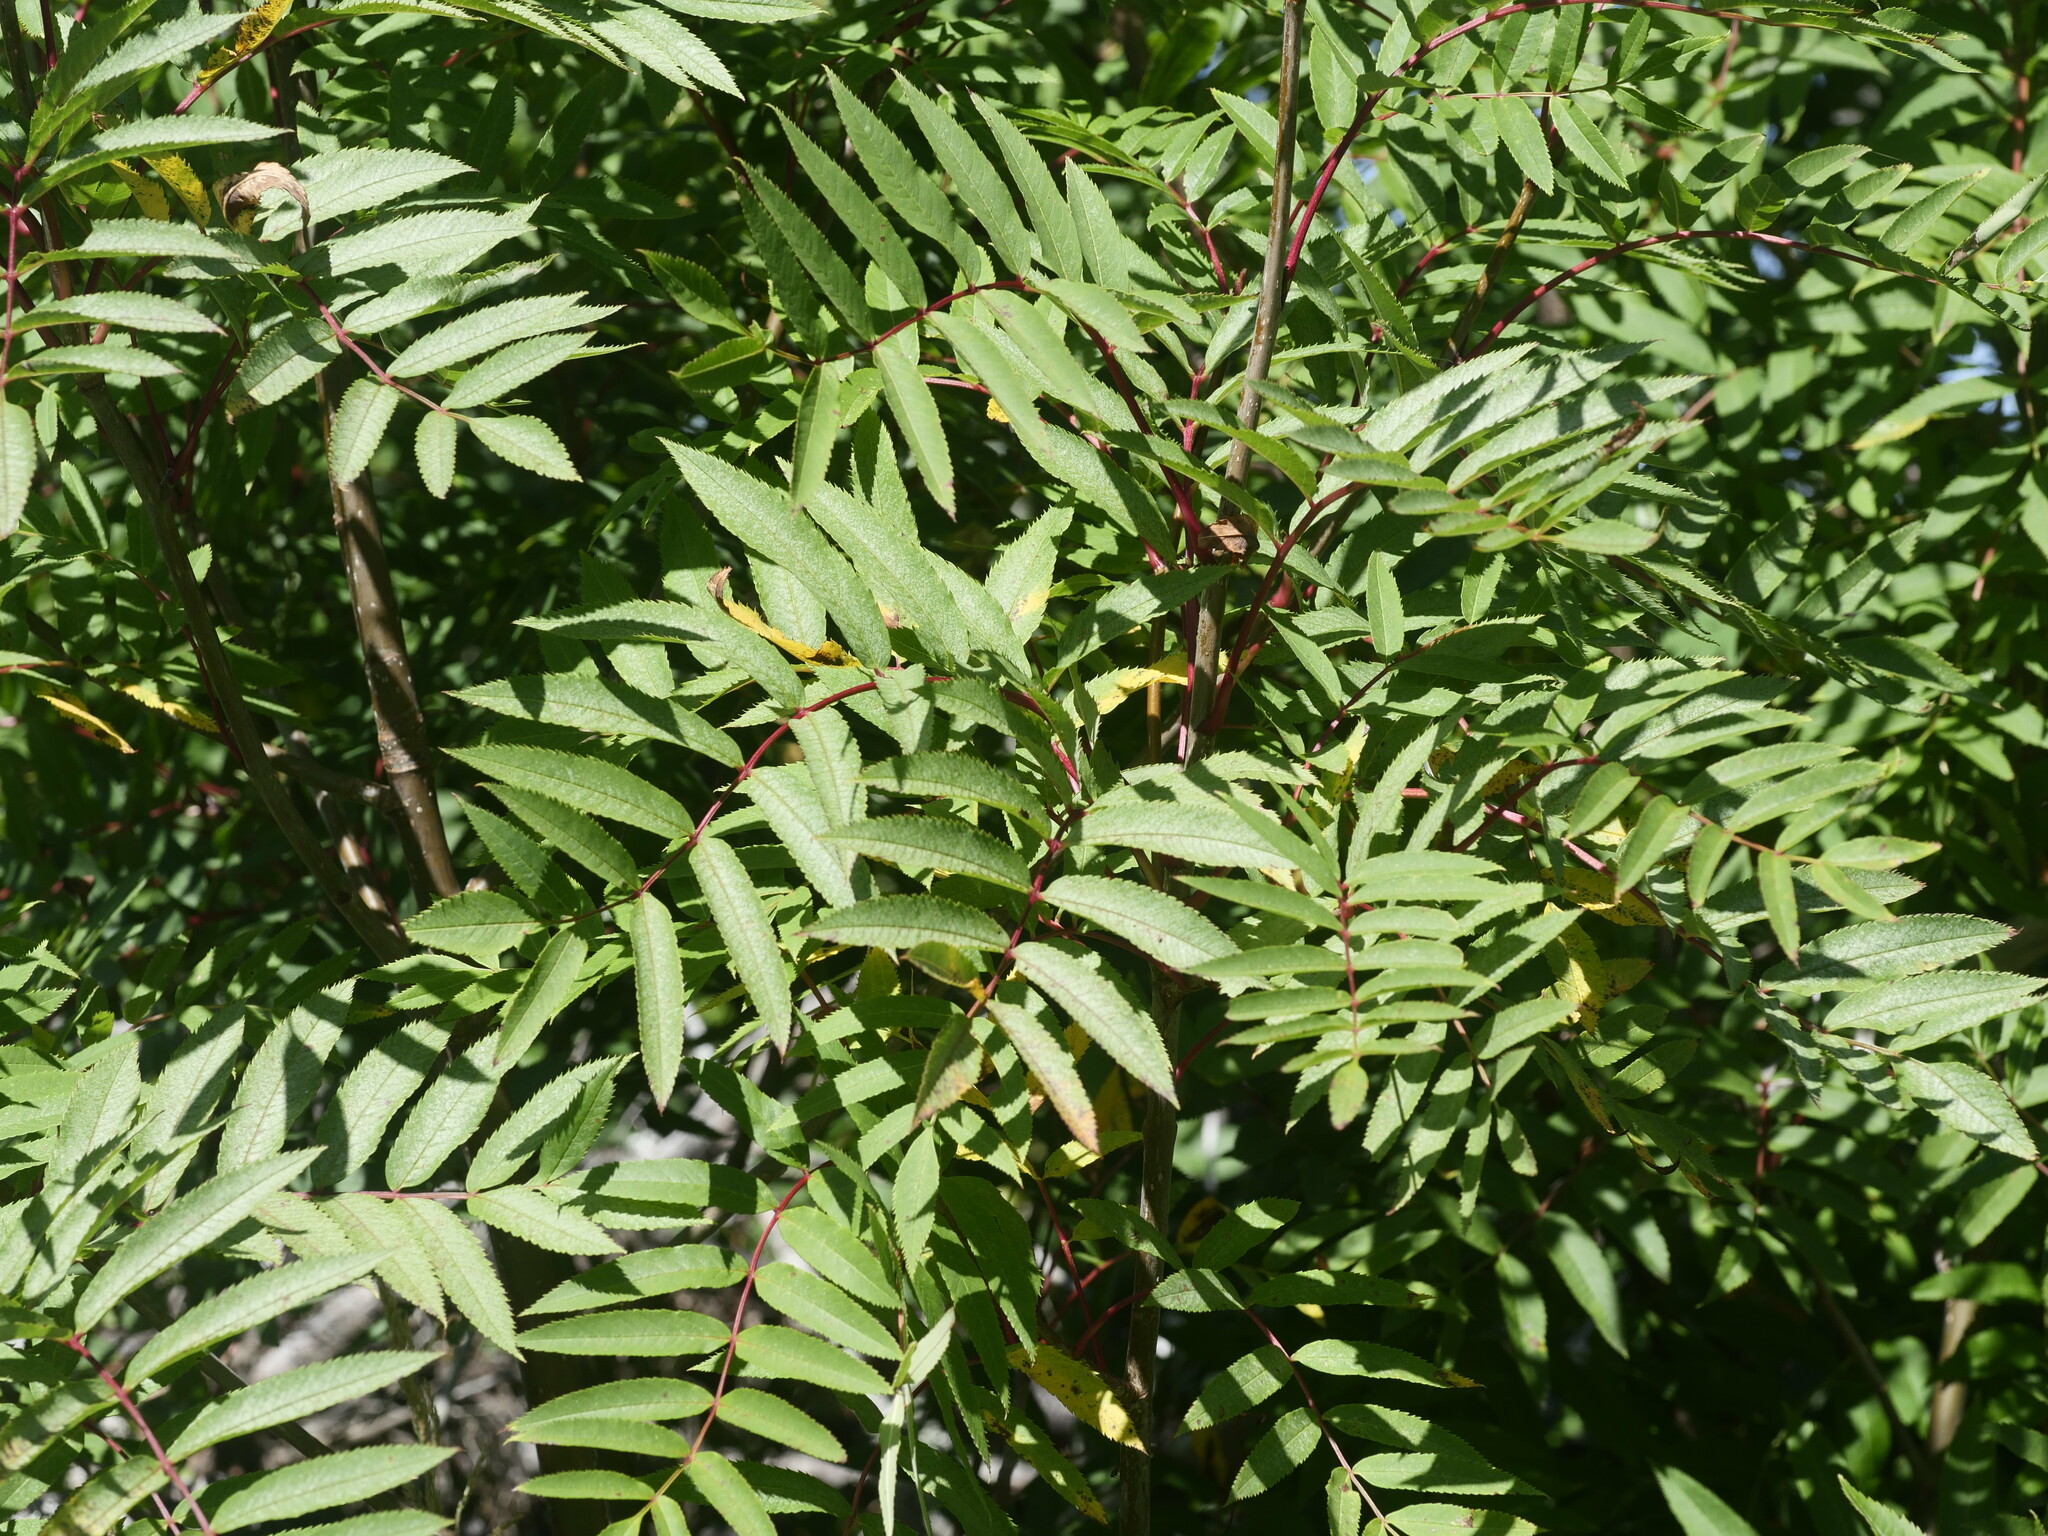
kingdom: Plantae
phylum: Tracheophyta
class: Magnoliopsida
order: Rosales
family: Rosaceae
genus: Sorbus
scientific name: Sorbus americana
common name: American mountain-ash
